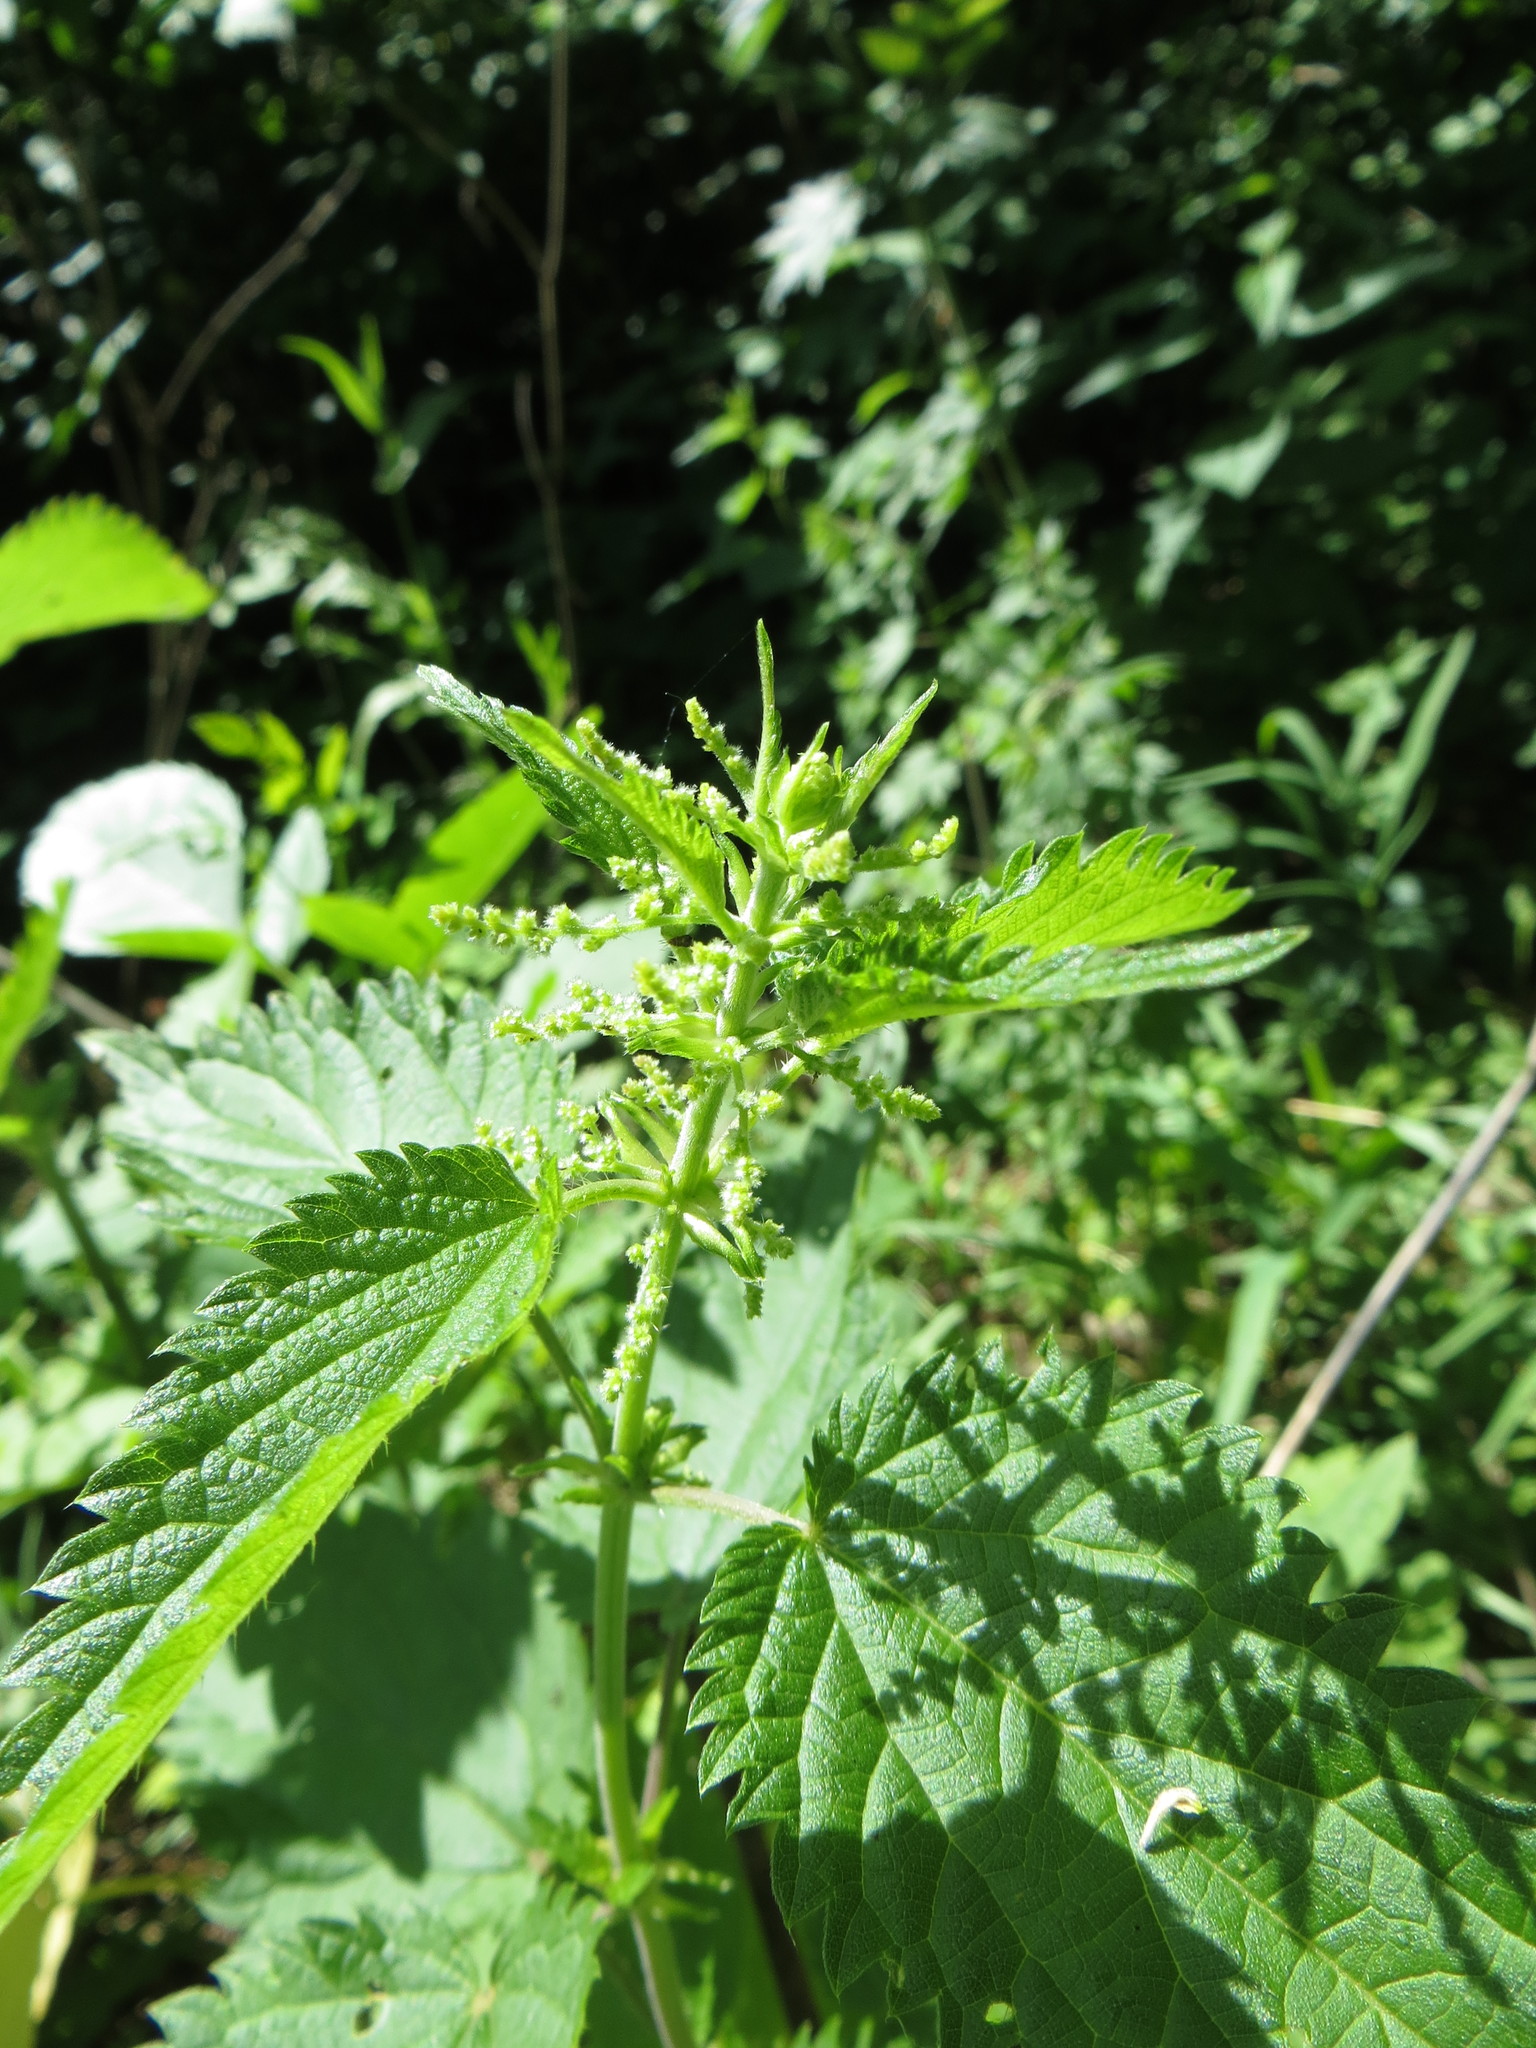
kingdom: Plantae
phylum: Tracheophyta
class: Magnoliopsida
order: Rosales
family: Urticaceae
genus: Urtica
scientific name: Urtica dioica
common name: Common nettle
